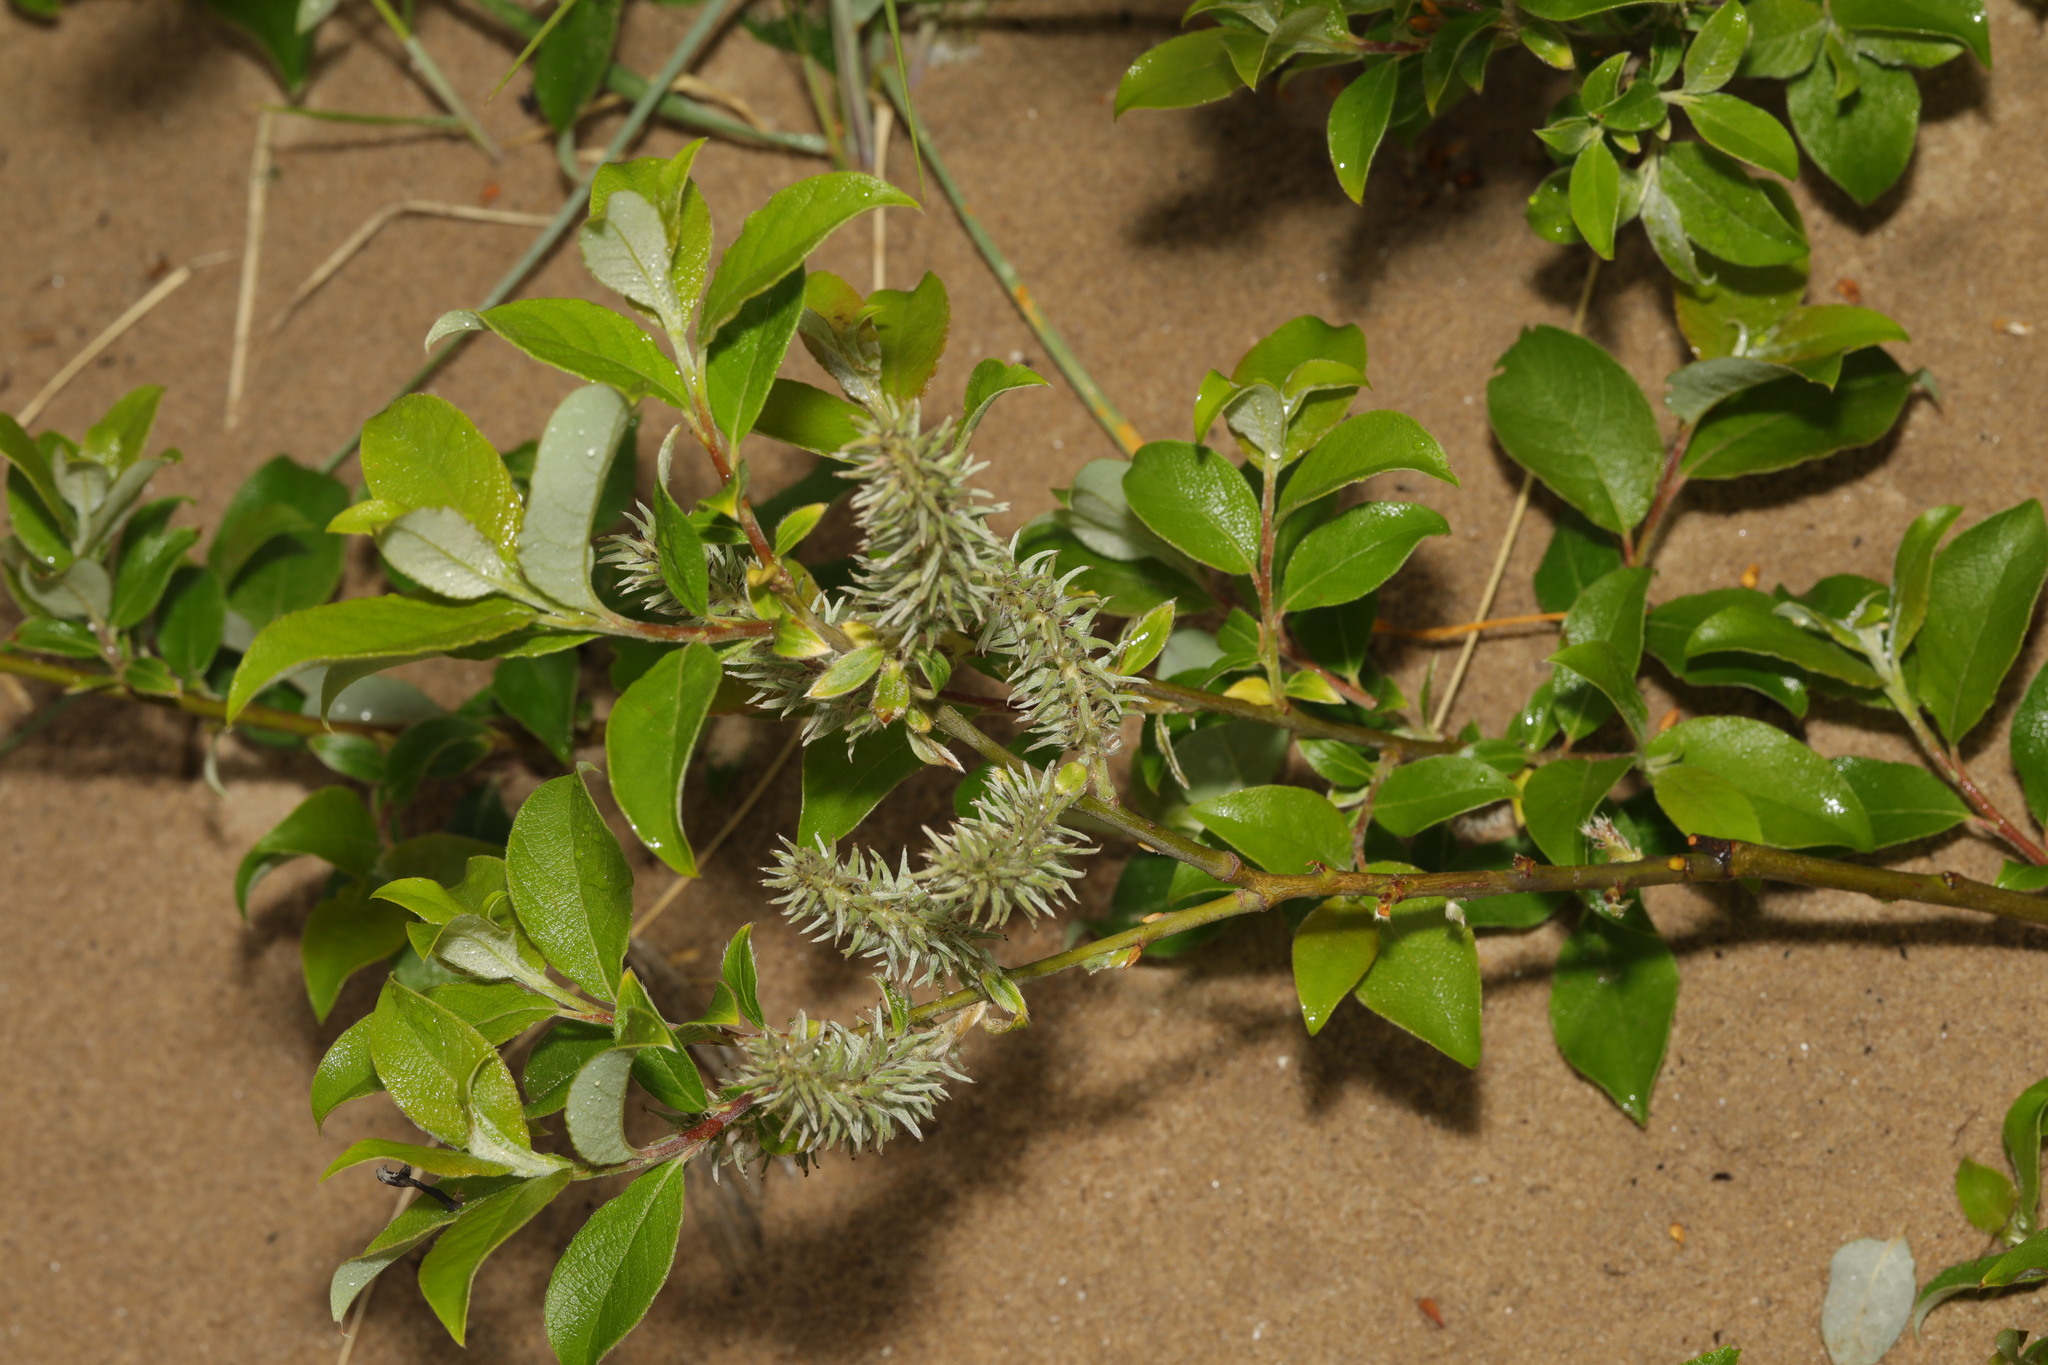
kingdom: Plantae
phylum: Tracheophyta
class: Magnoliopsida
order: Malpighiales
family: Salicaceae
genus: Salix
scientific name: Salix cinerea
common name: Common sallow
